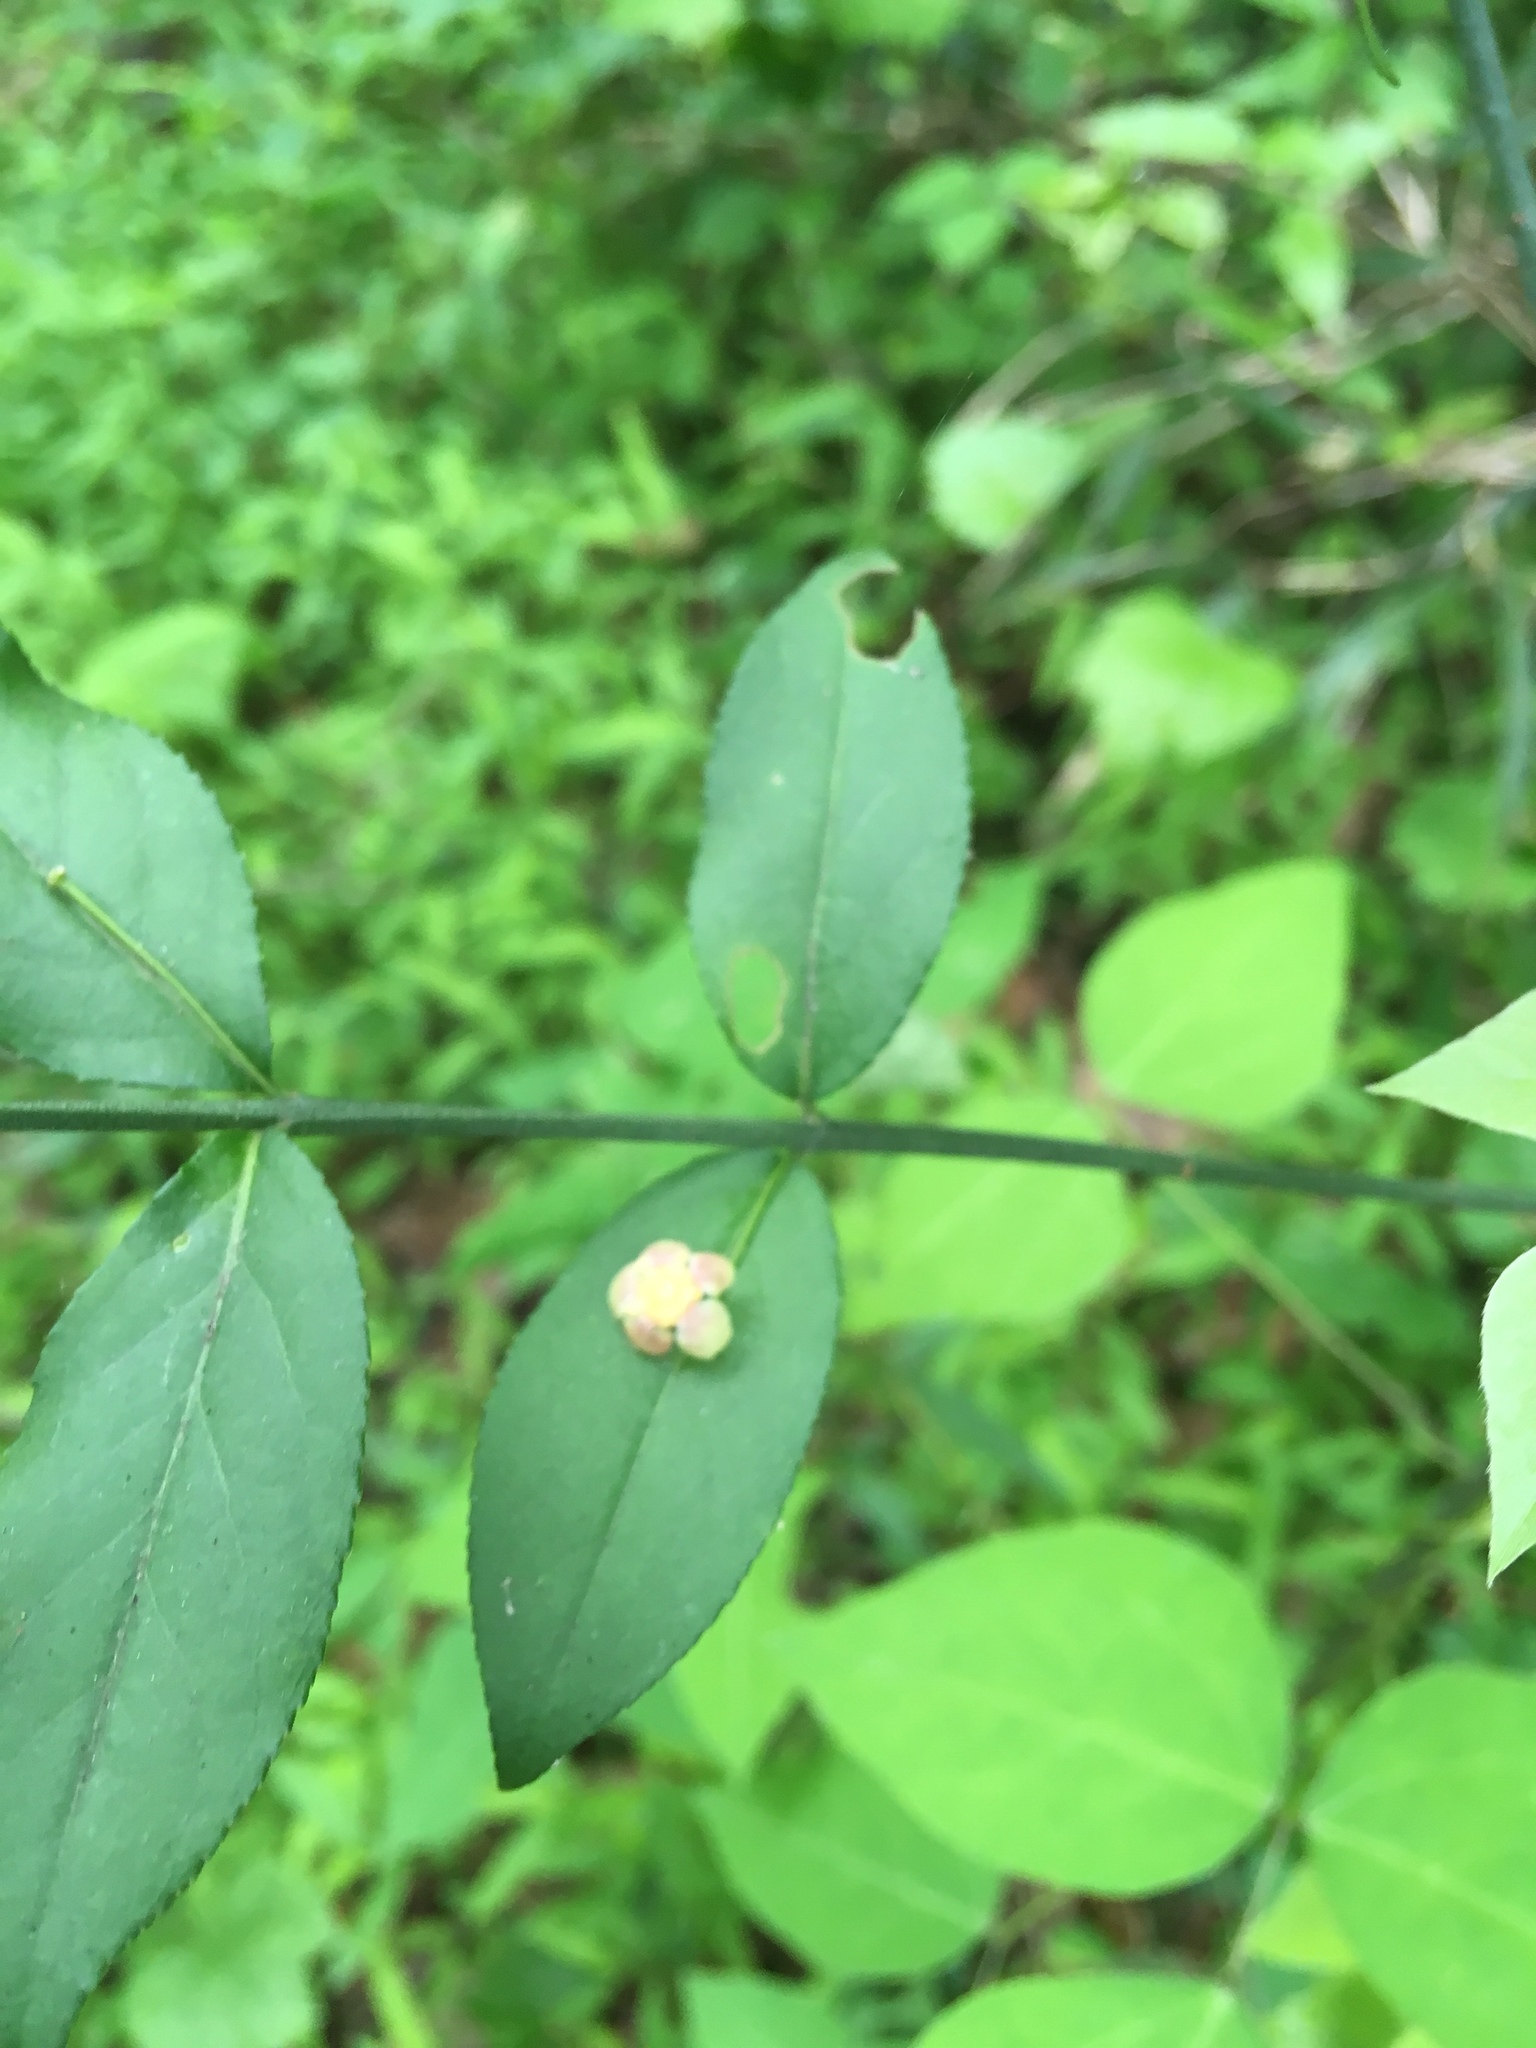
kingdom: Plantae
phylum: Tracheophyta
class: Magnoliopsida
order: Celastrales
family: Celastraceae
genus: Euonymus
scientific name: Euonymus americanus
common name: Bursting-heart
